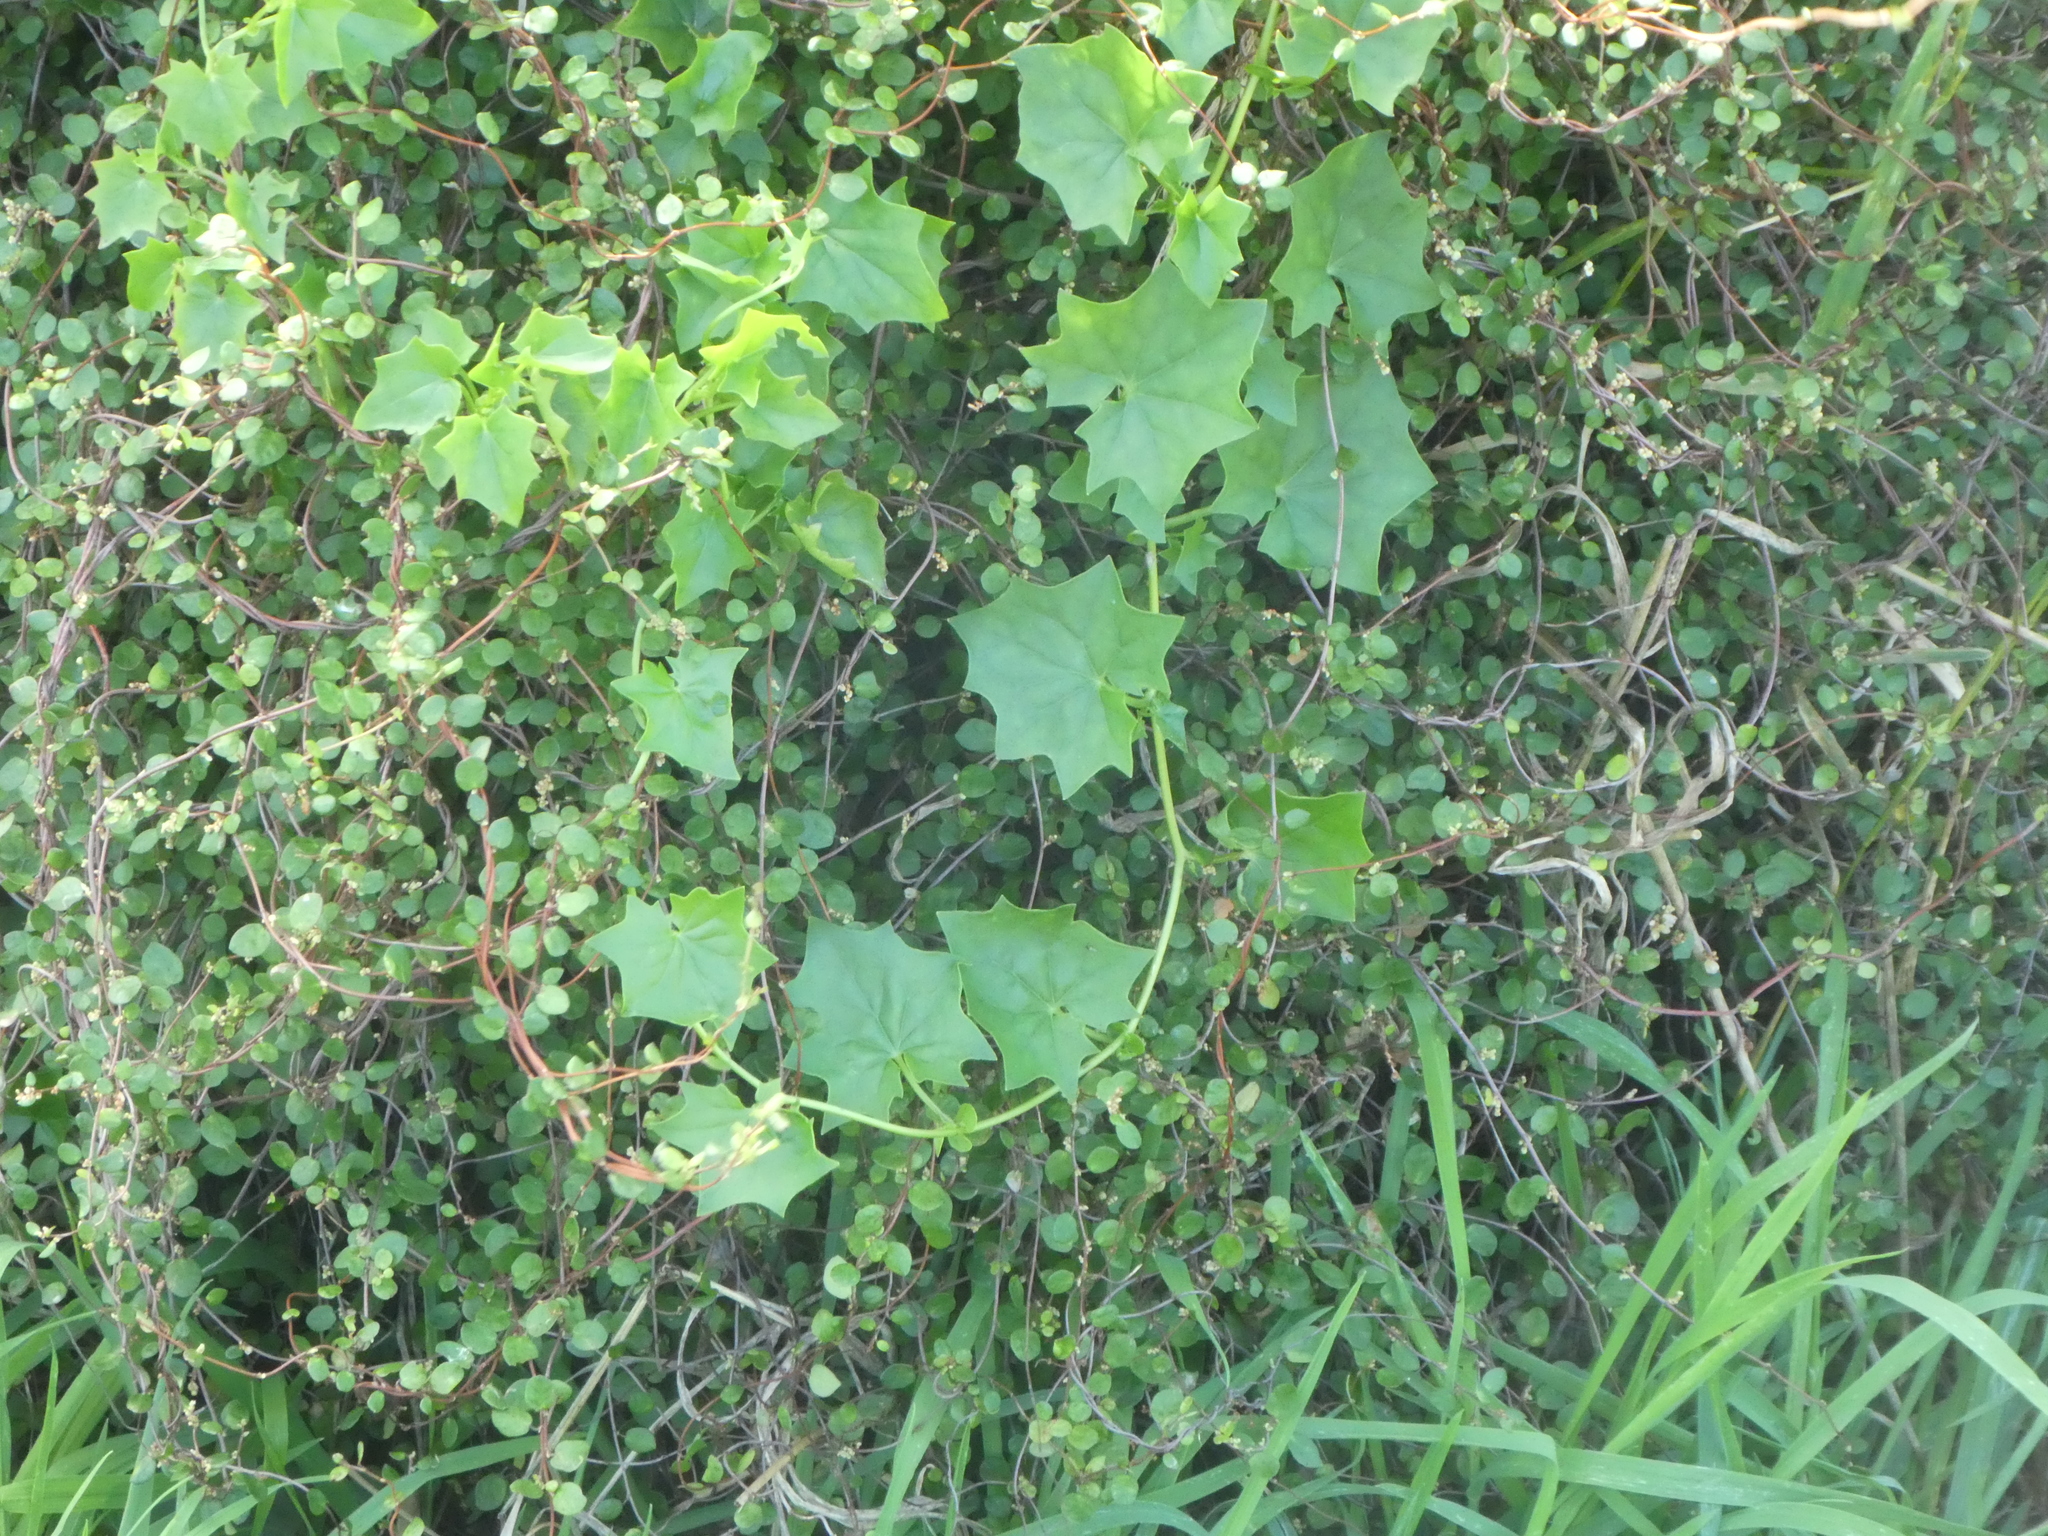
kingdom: Plantae
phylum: Tracheophyta
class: Magnoliopsida
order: Asterales
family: Asteraceae
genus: Delairea
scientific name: Delairea odorata
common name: Cape-ivy
